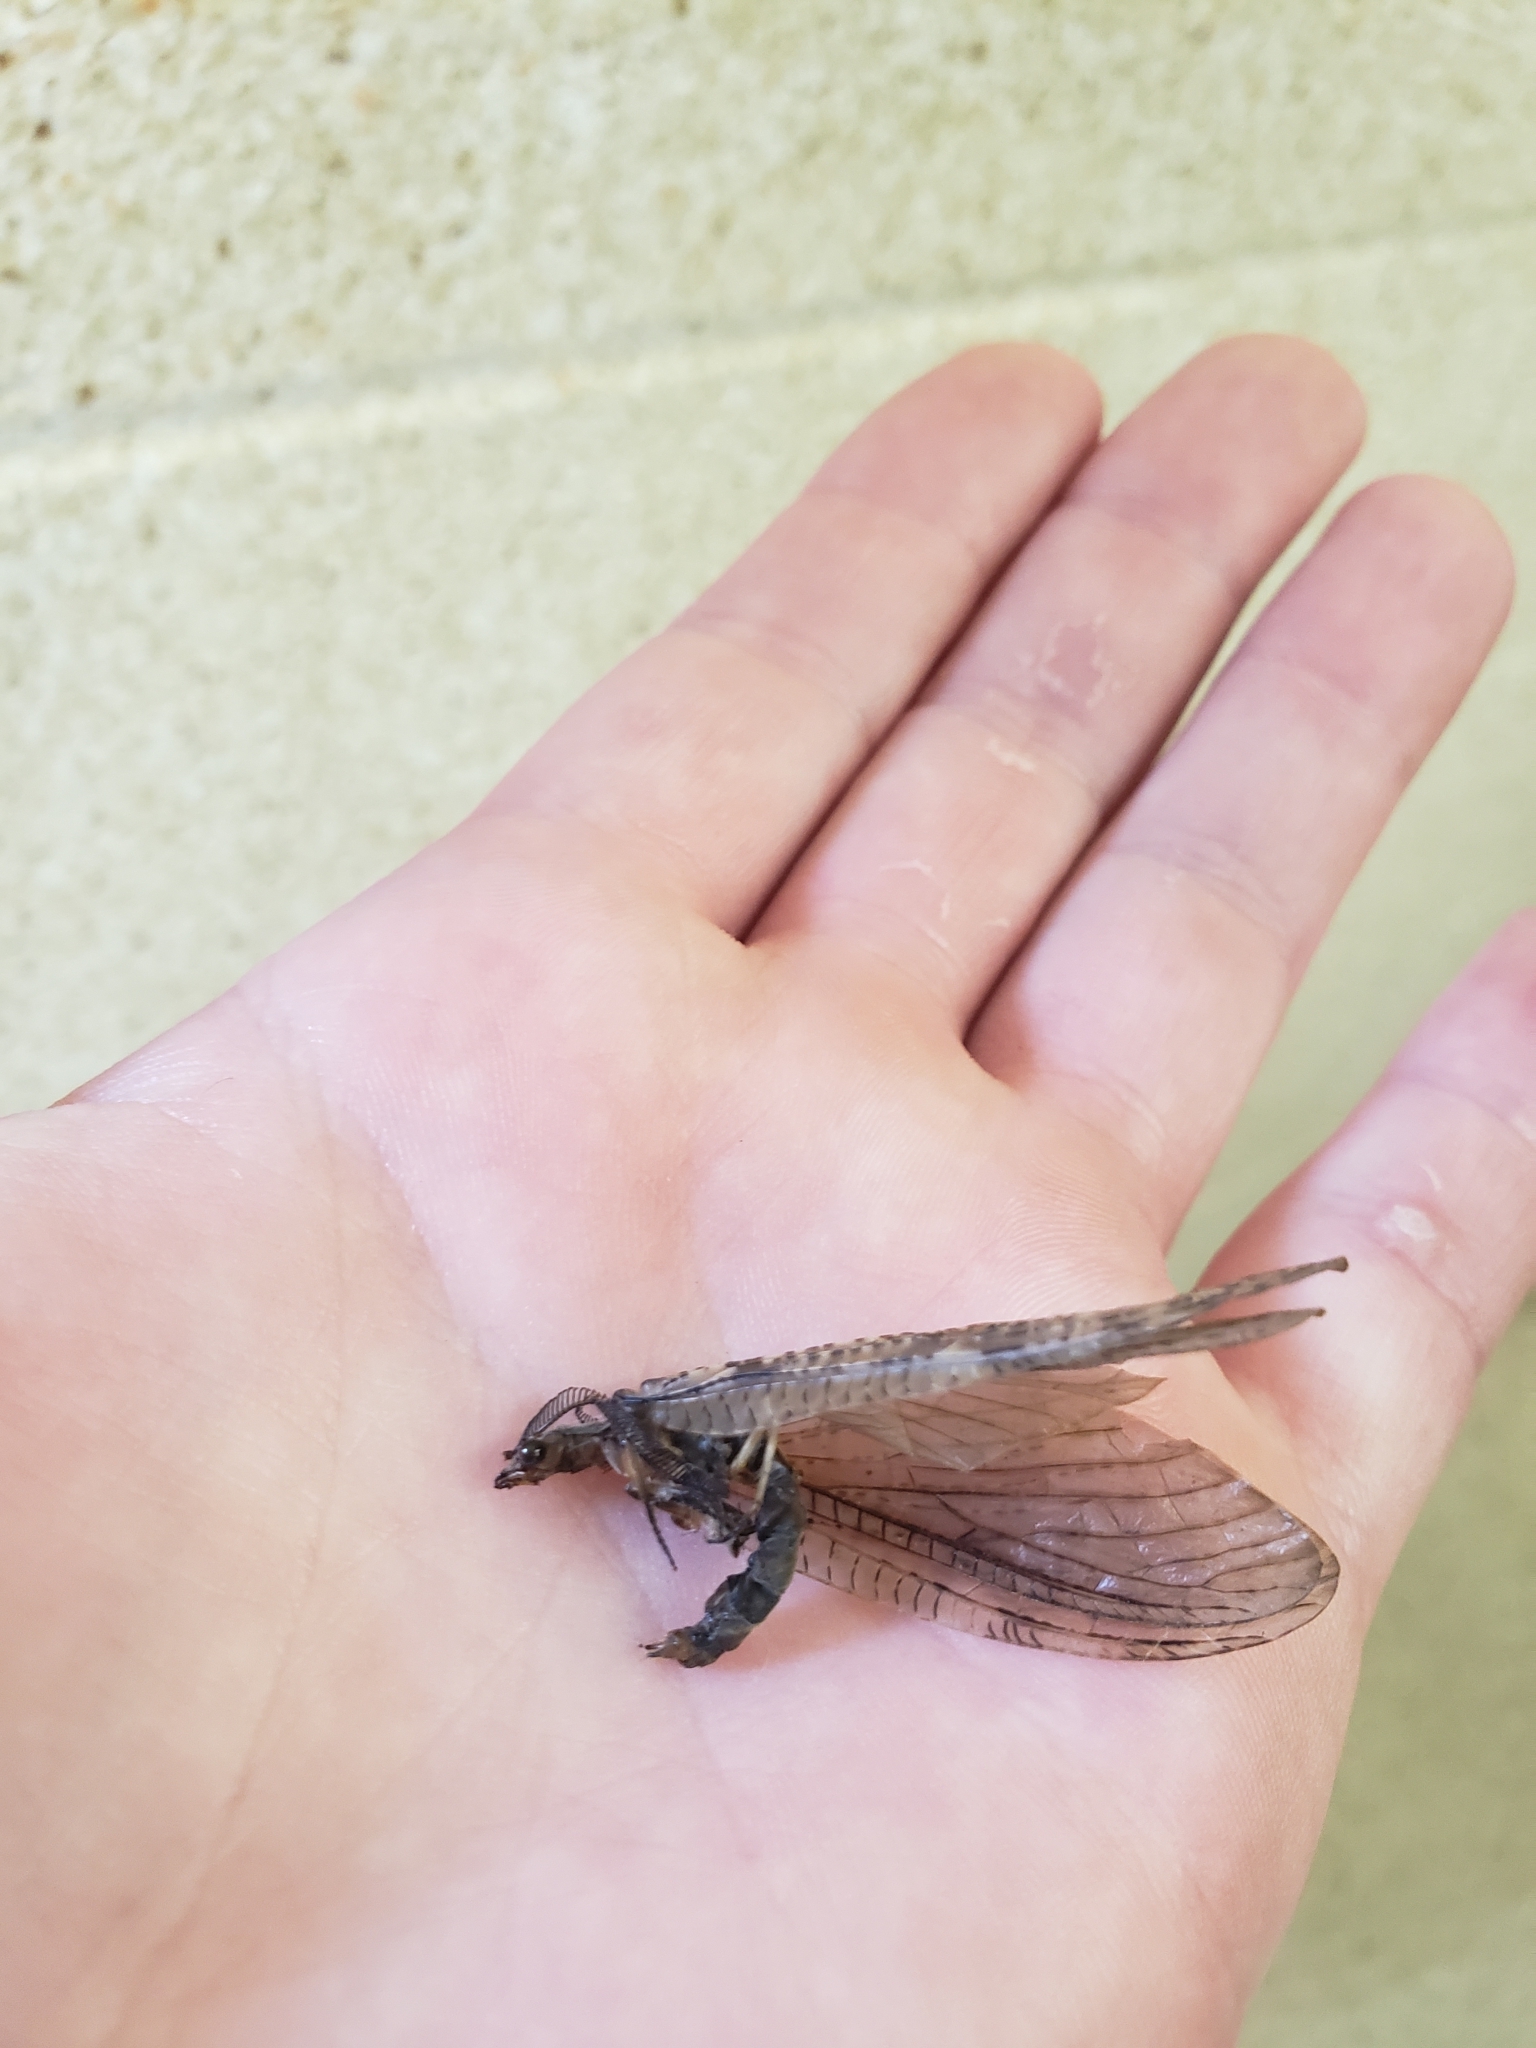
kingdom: Animalia
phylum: Arthropoda
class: Insecta
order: Megaloptera
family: Corydalidae
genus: Chauliodes
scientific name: Chauliodes pectinicornis
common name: Summer fishfly
